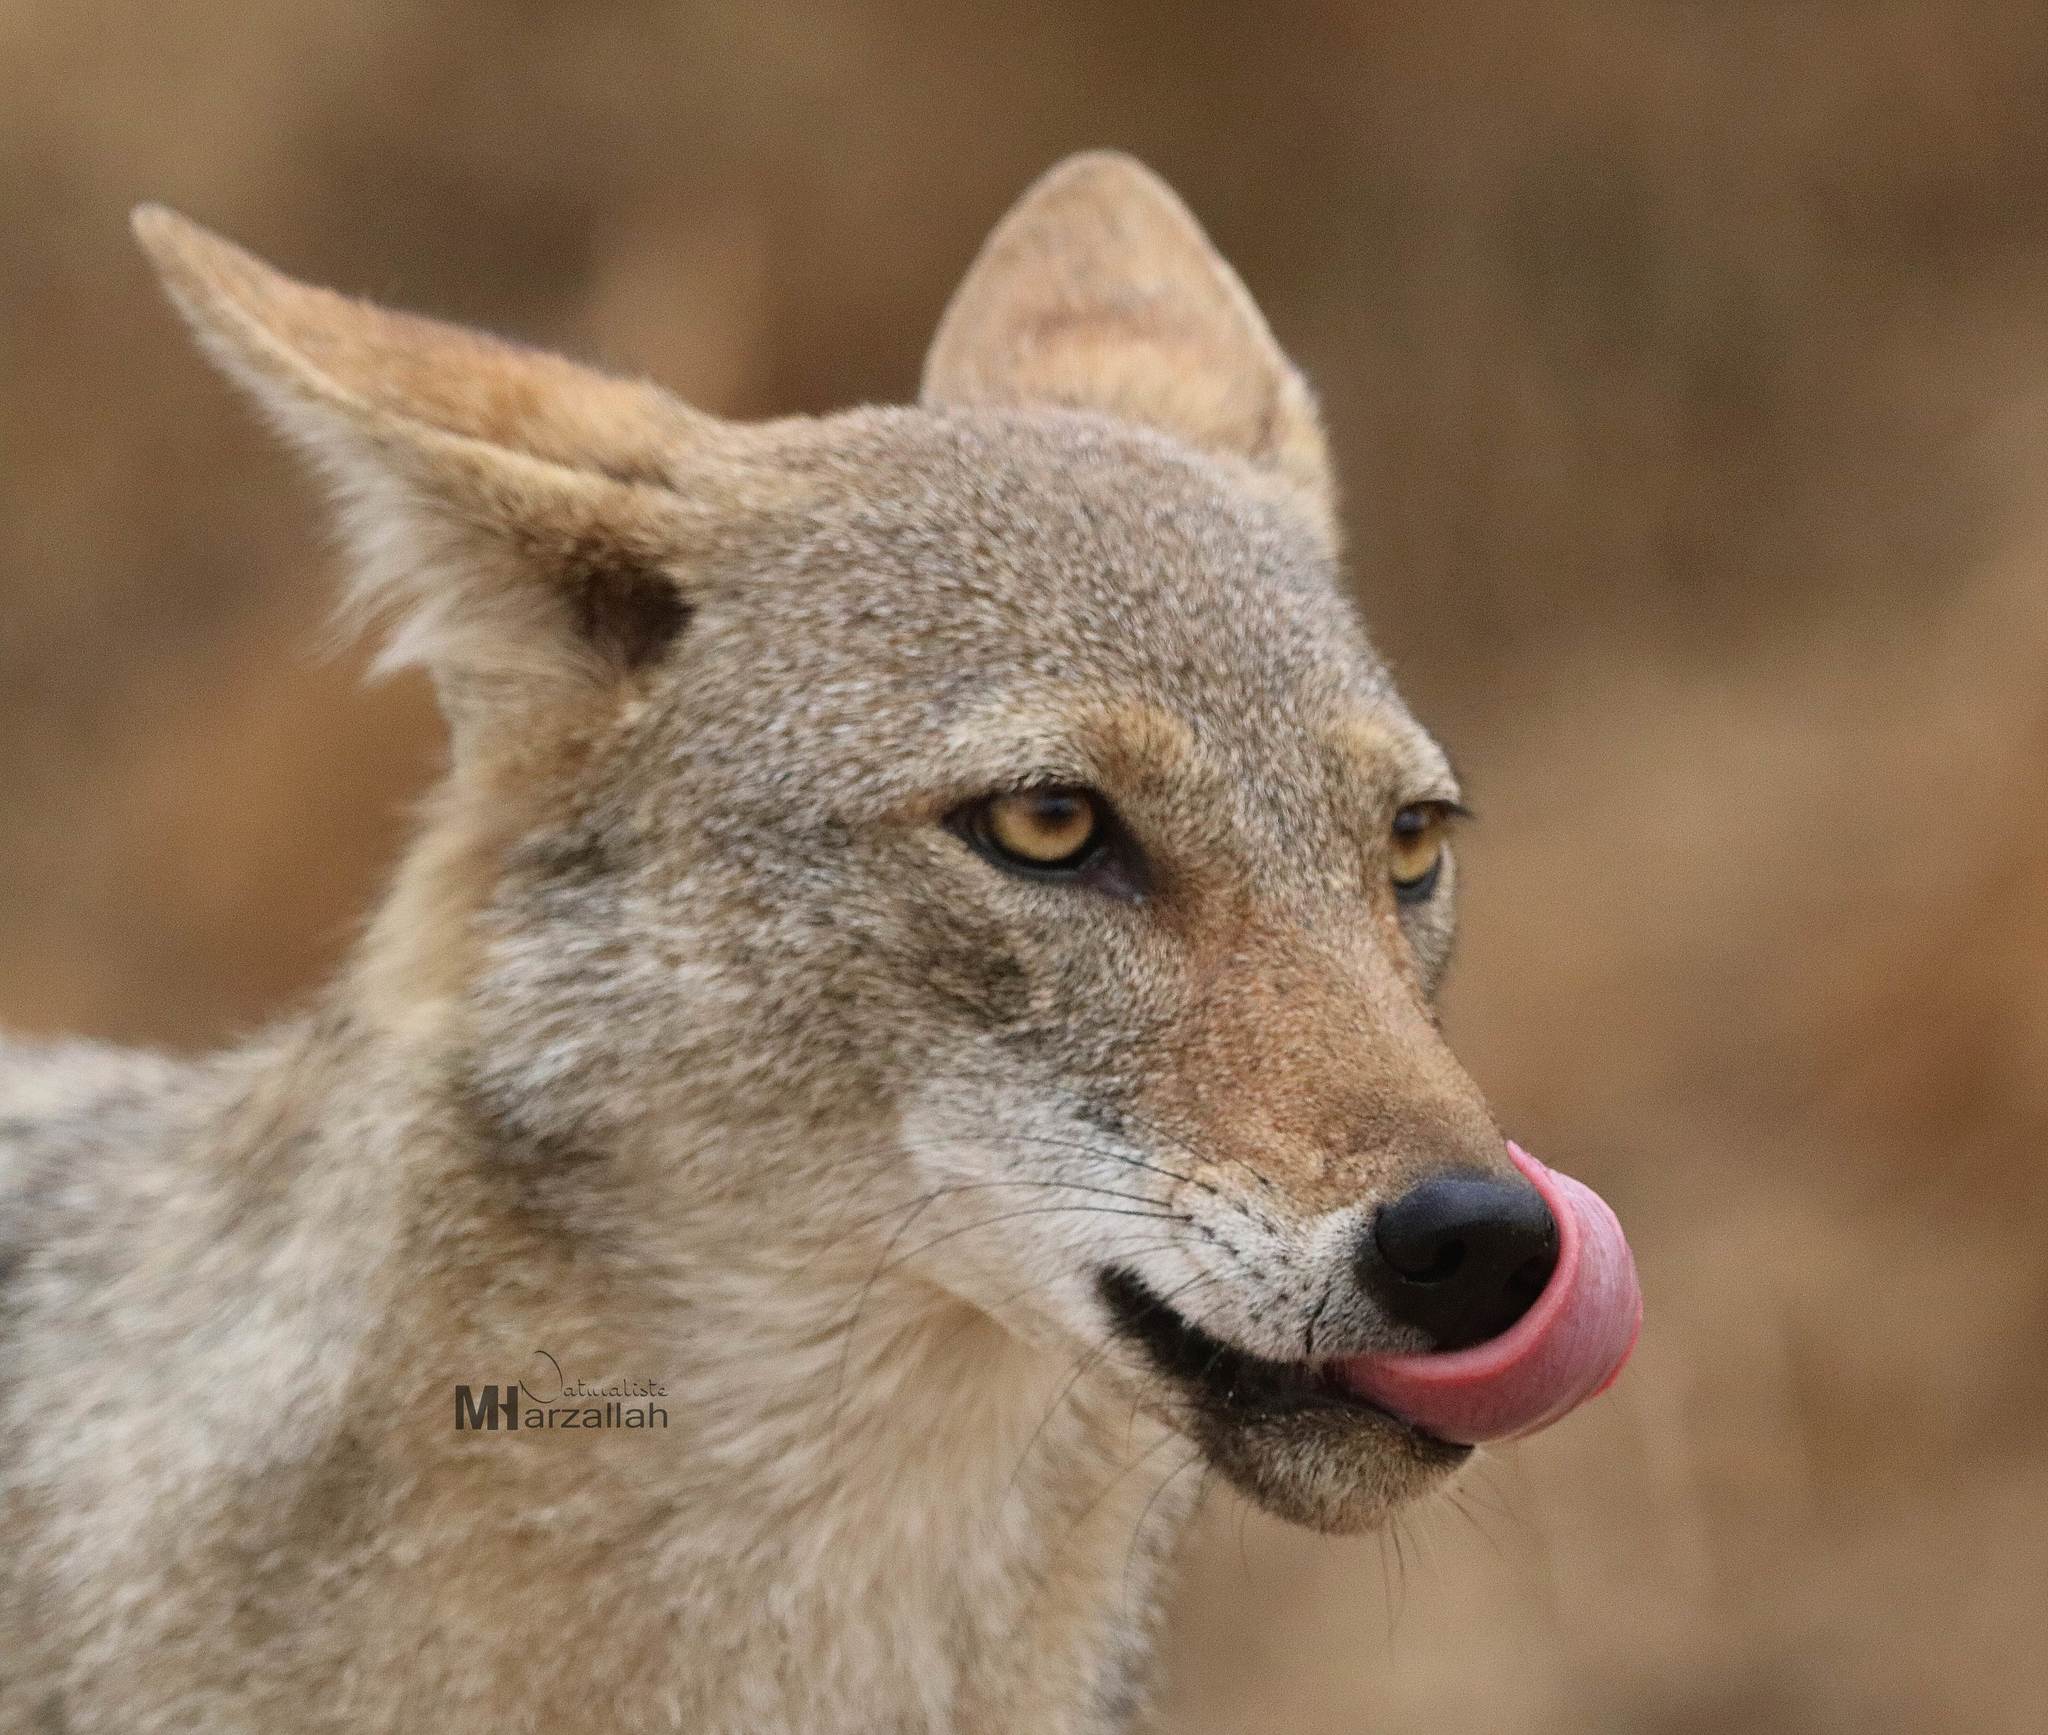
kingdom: Animalia
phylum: Chordata
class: Mammalia
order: Carnivora
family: Canidae
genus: Canis
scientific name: Canis lupaster
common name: African golden wolf
